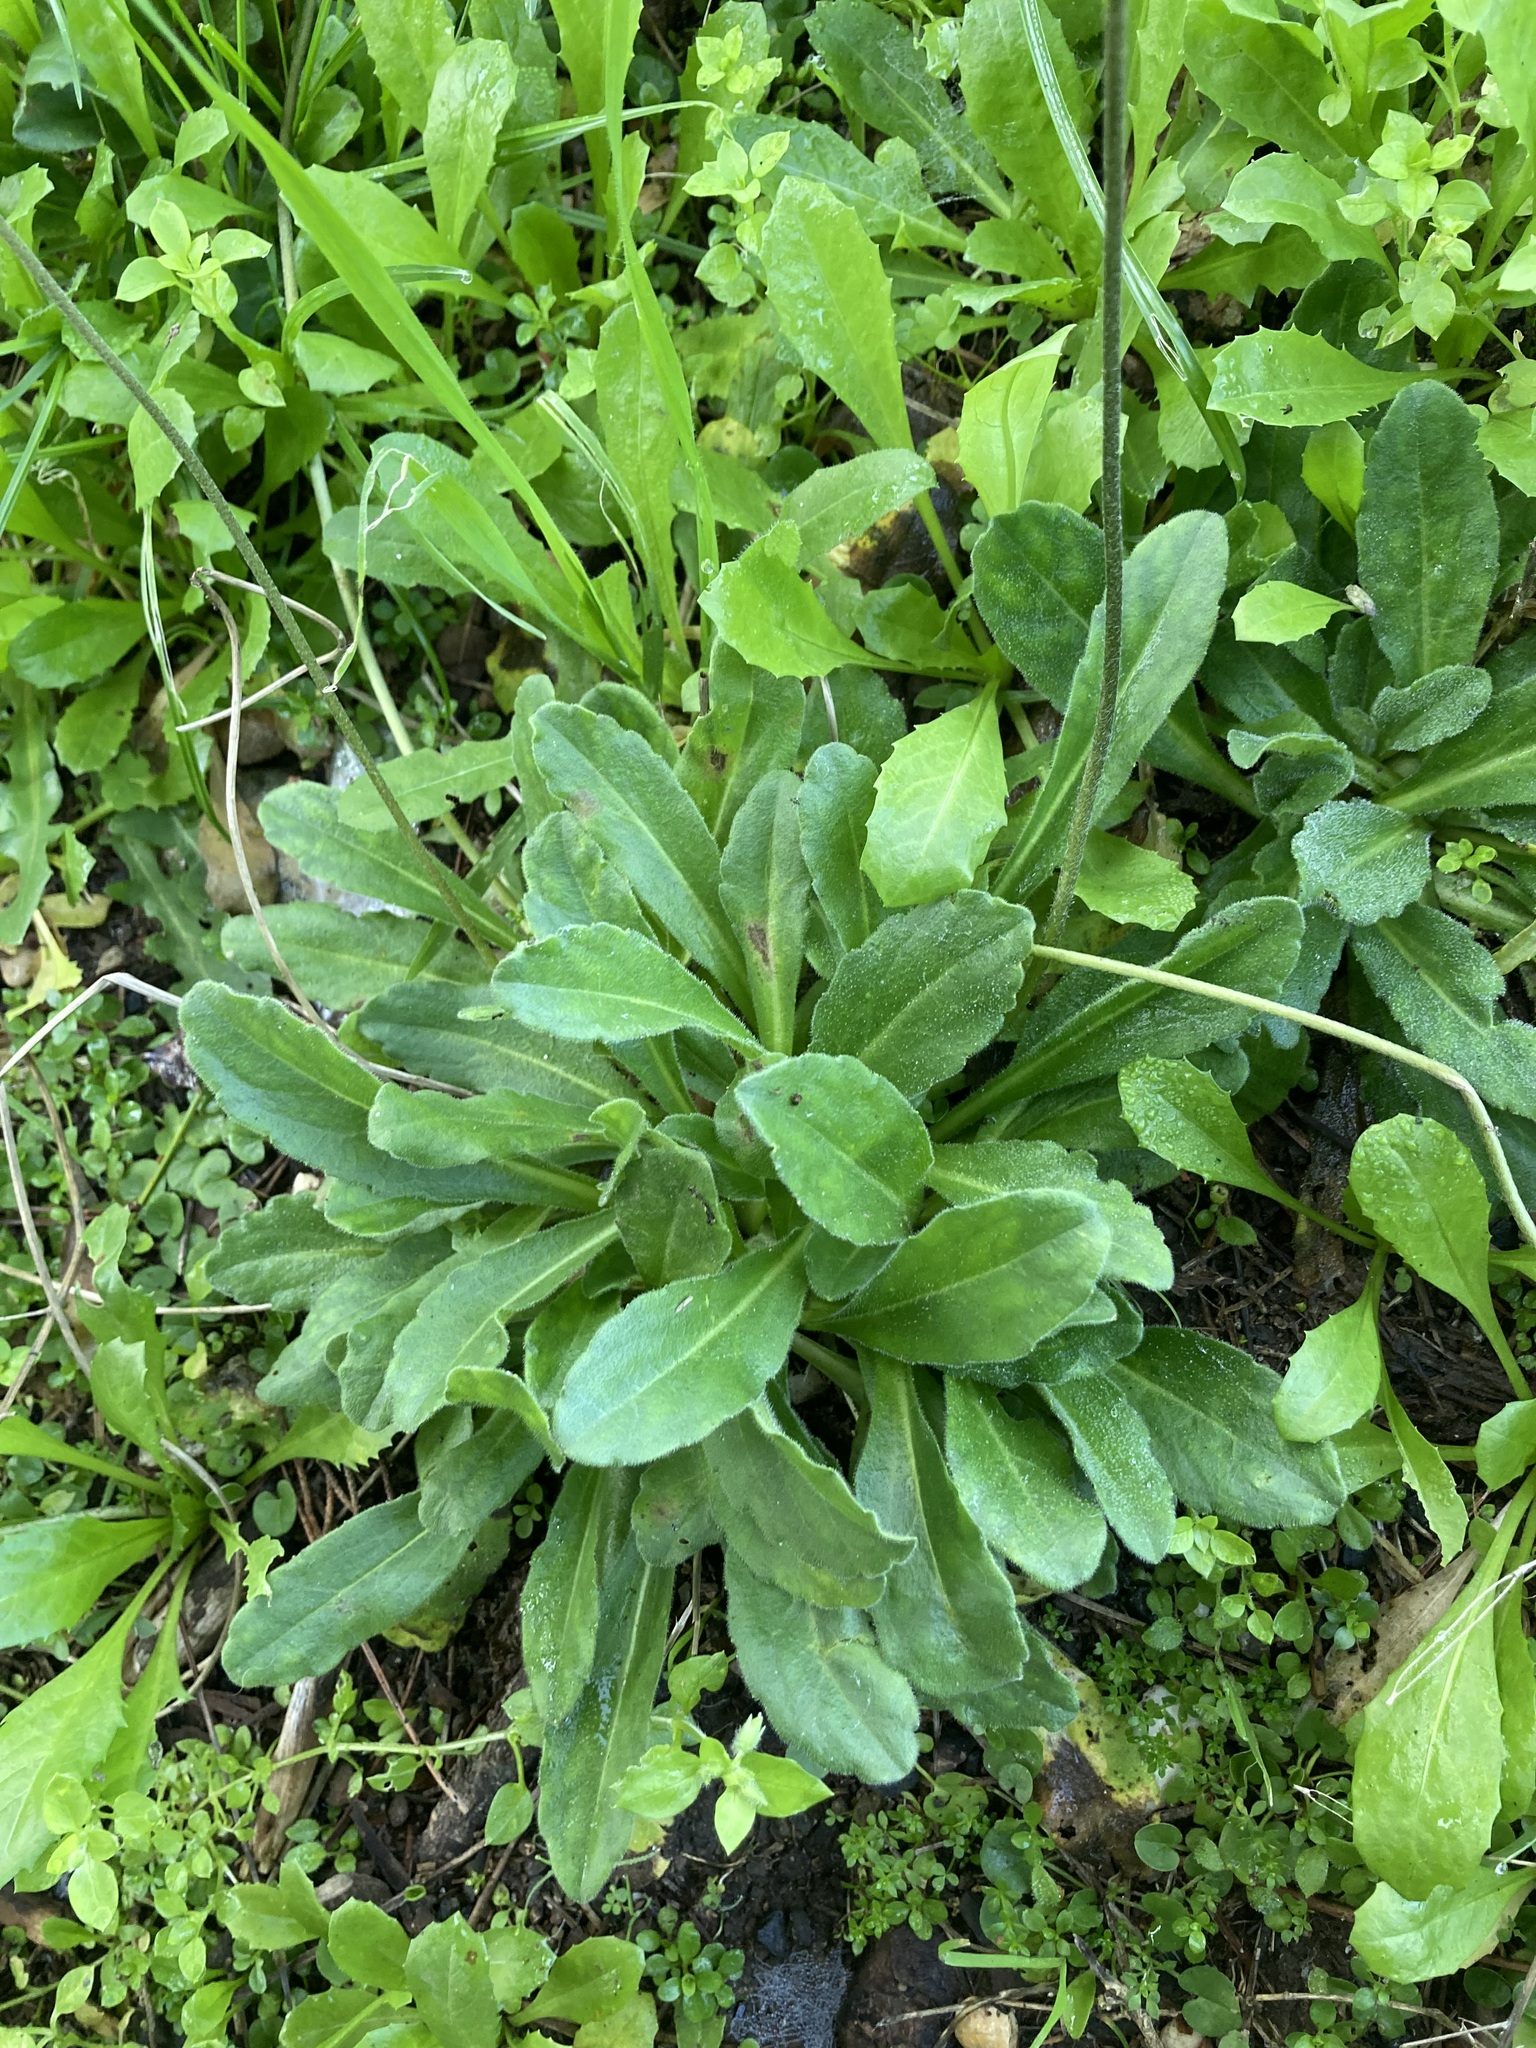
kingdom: Plantae
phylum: Tracheophyta
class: Magnoliopsida
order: Asterales
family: Asteraceae
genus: Bellis
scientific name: Bellis perennis
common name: Lawndaisy
